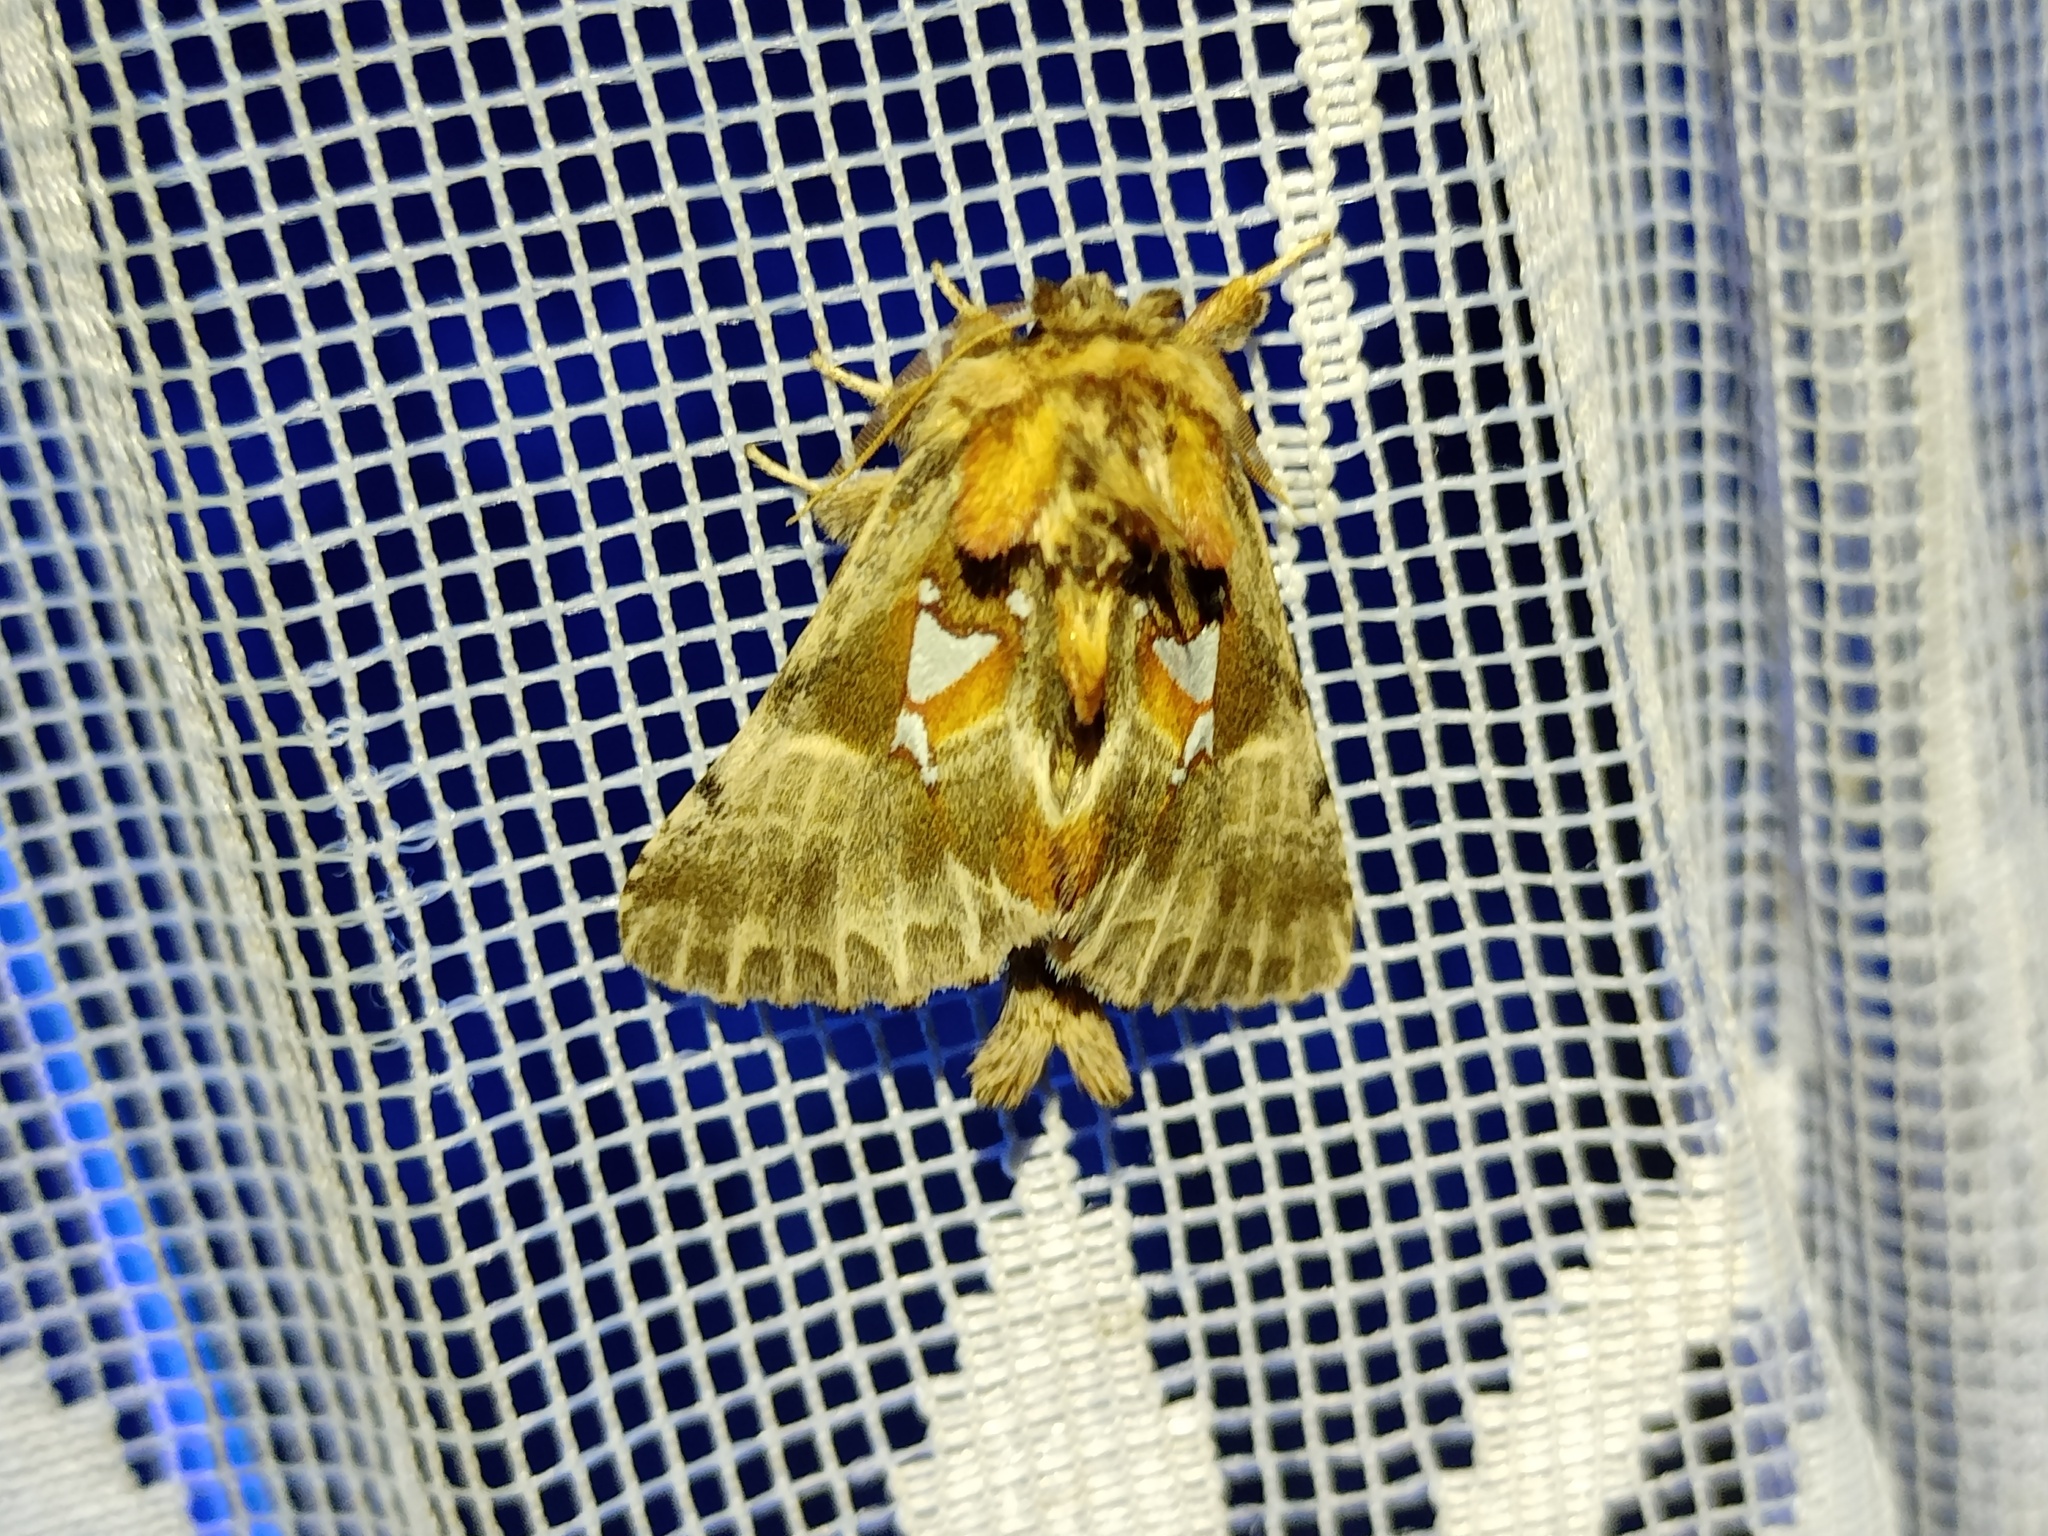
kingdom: Animalia
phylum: Arthropoda
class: Insecta
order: Lepidoptera
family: Notodontidae
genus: Spatalia
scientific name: Spatalia argentina
